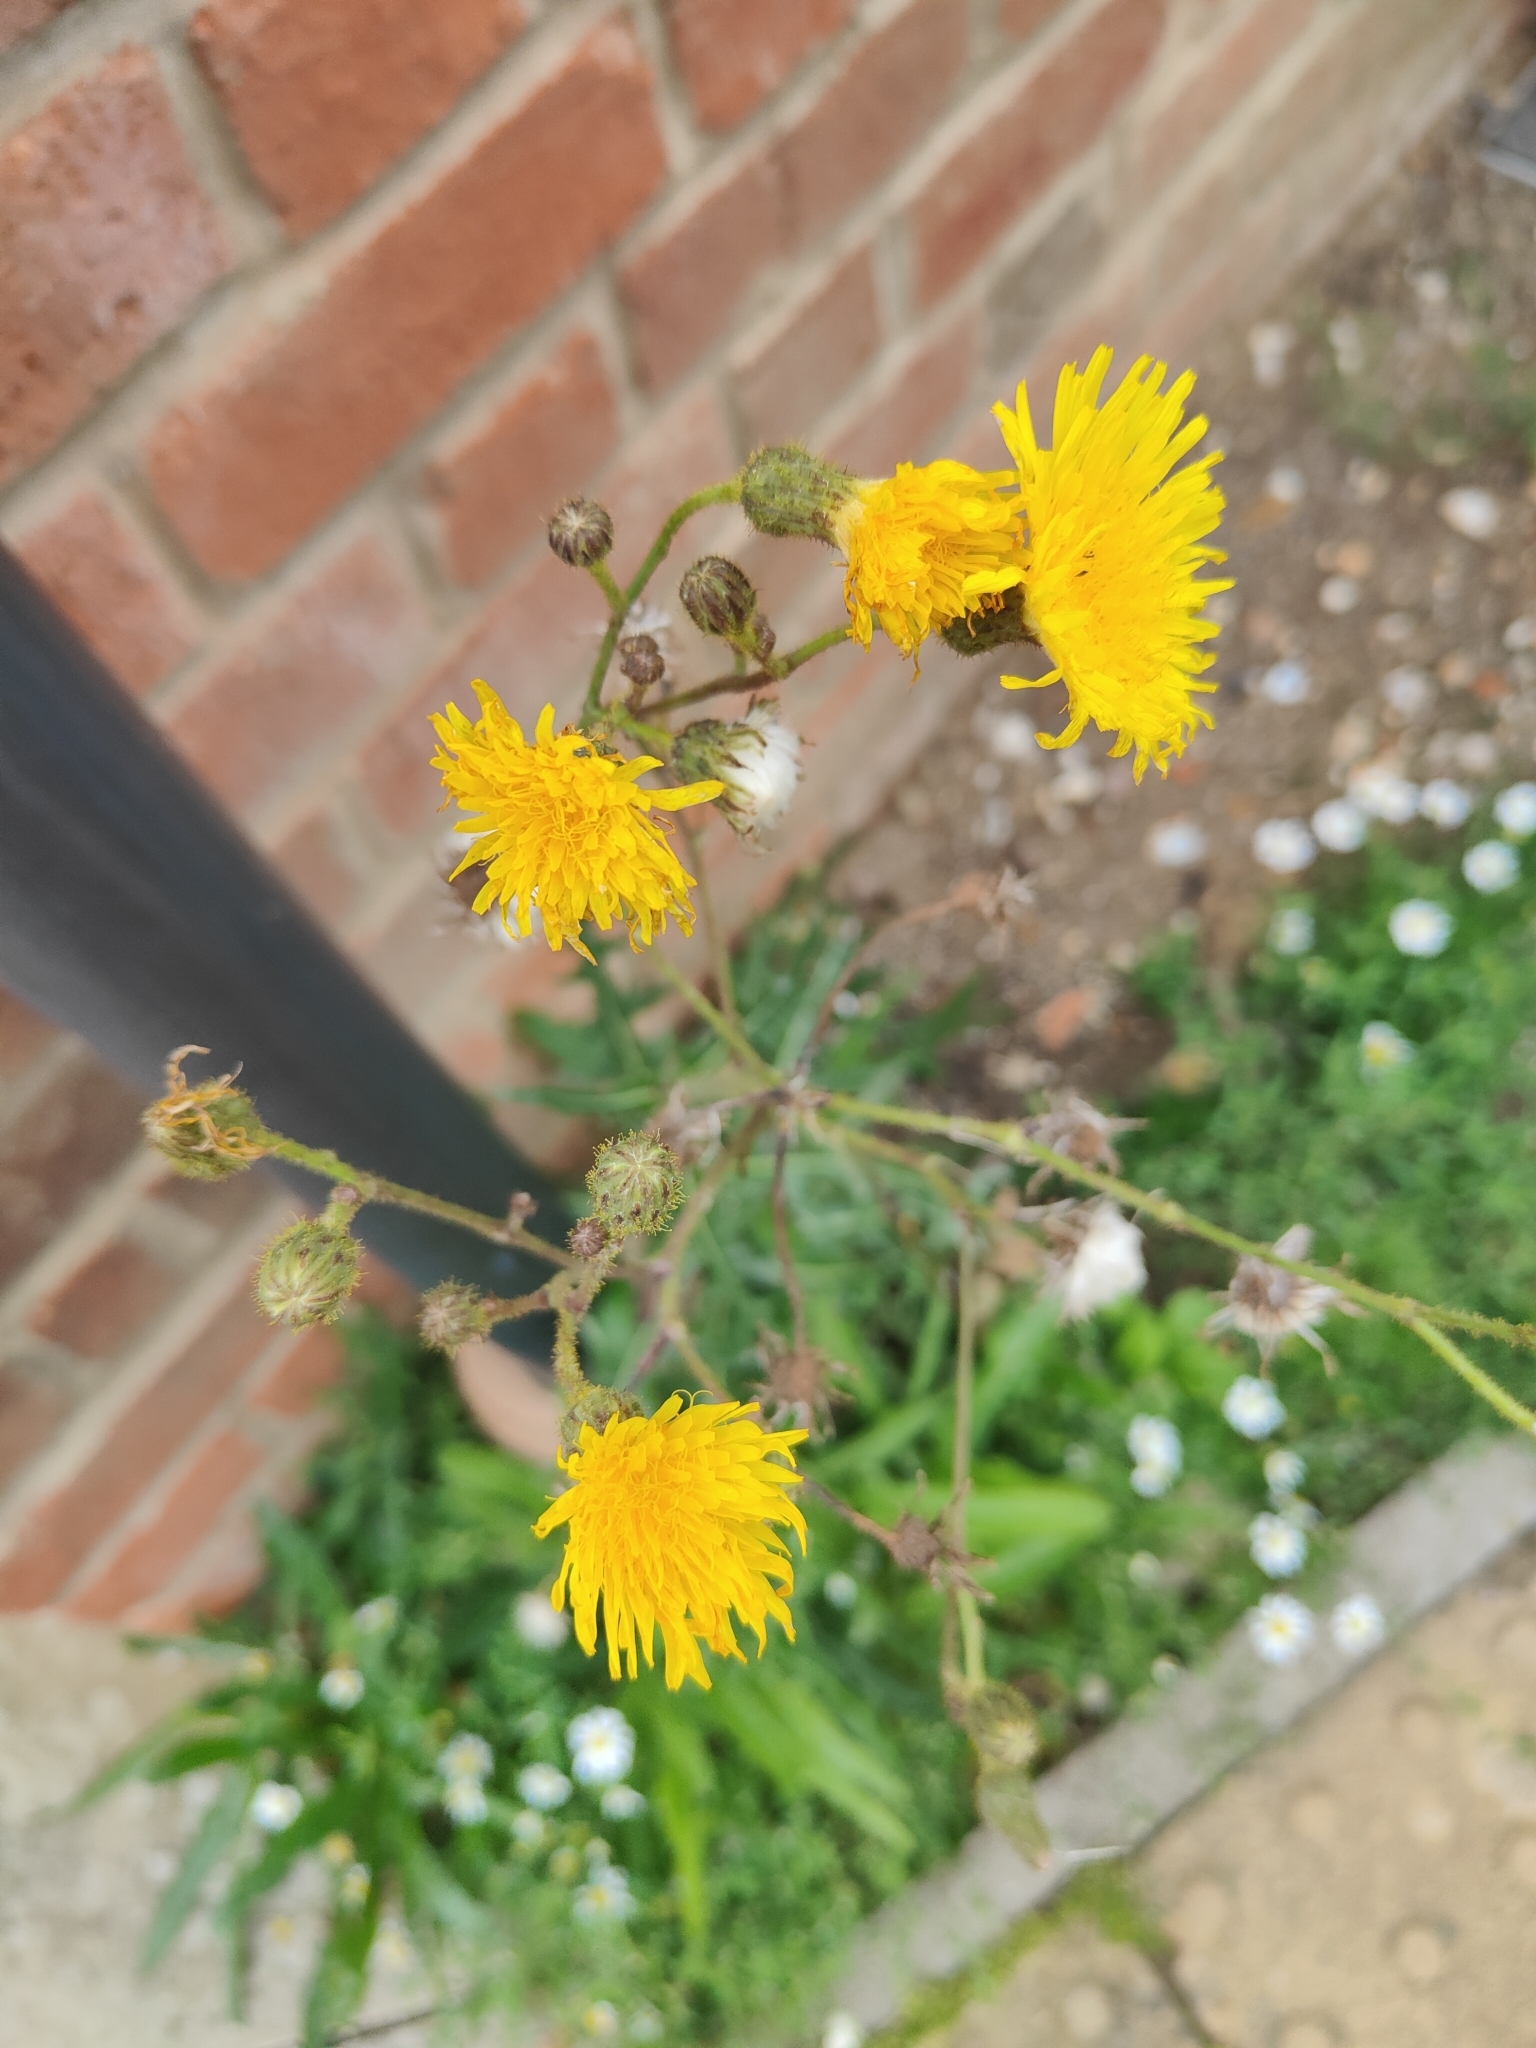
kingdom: Plantae
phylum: Tracheophyta
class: Magnoliopsida
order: Asterales
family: Asteraceae
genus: Sonchus
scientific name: Sonchus arvensis
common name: Perennial sow-thistle
